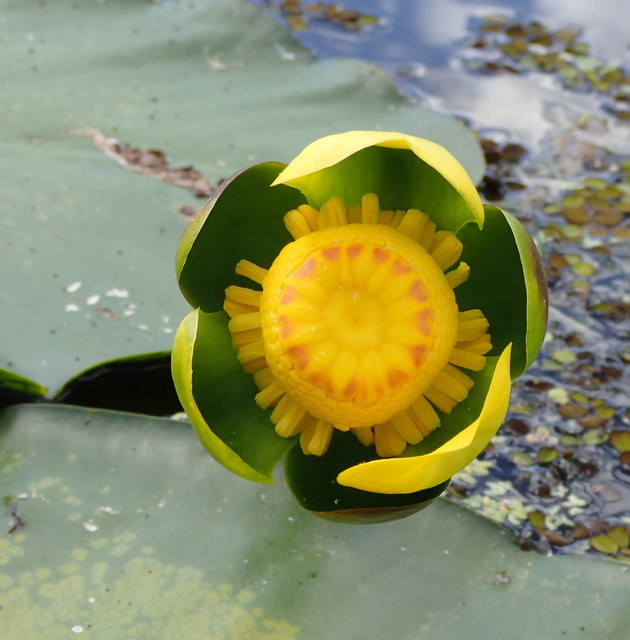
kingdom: Plantae
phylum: Tracheophyta
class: Magnoliopsida
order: Nymphaeales
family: Nymphaeaceae
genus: Nuphar
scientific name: Nuphar advena
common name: Spatter-dock
